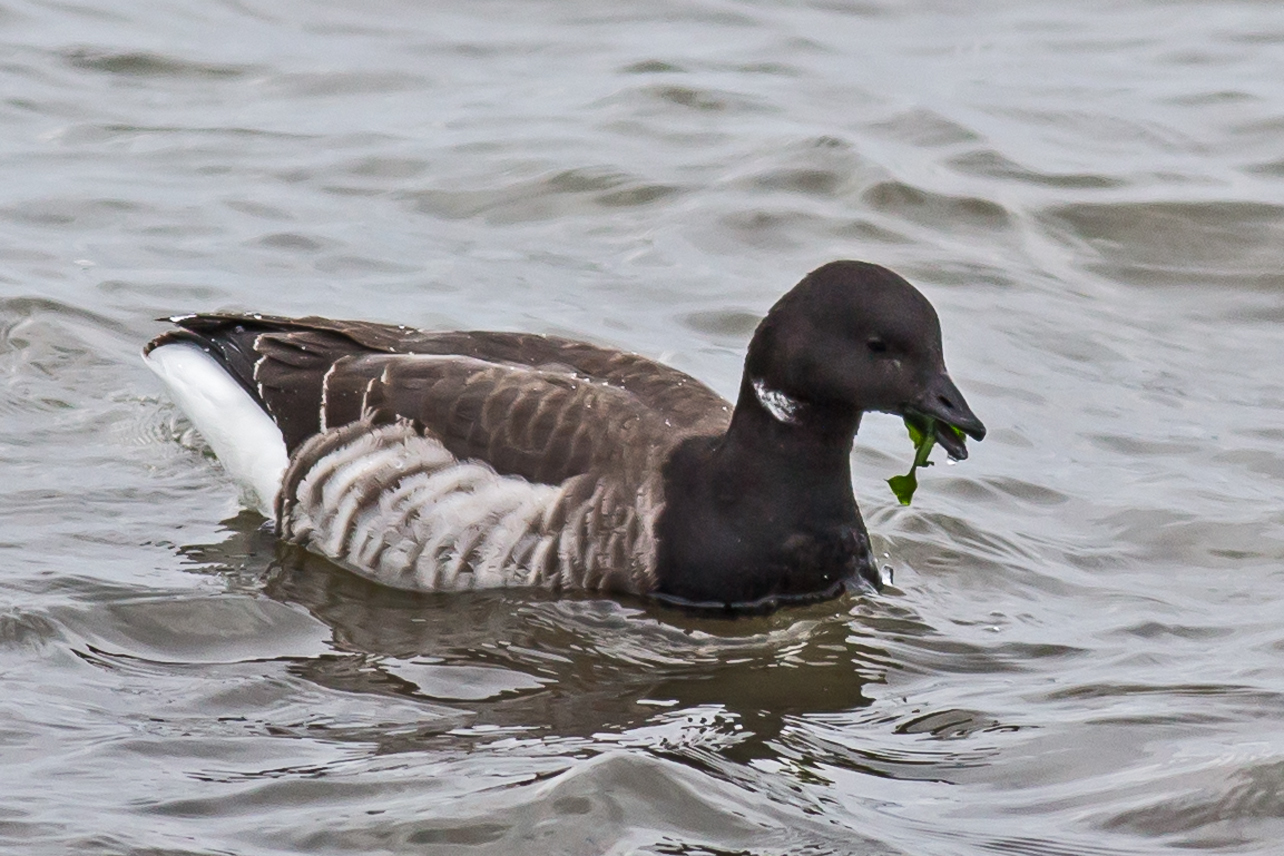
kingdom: Animalia
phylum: Chordata
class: Aves
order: Anseriformes
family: Anatidae
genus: Branta
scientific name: Branta bernicla
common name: Brant goose
